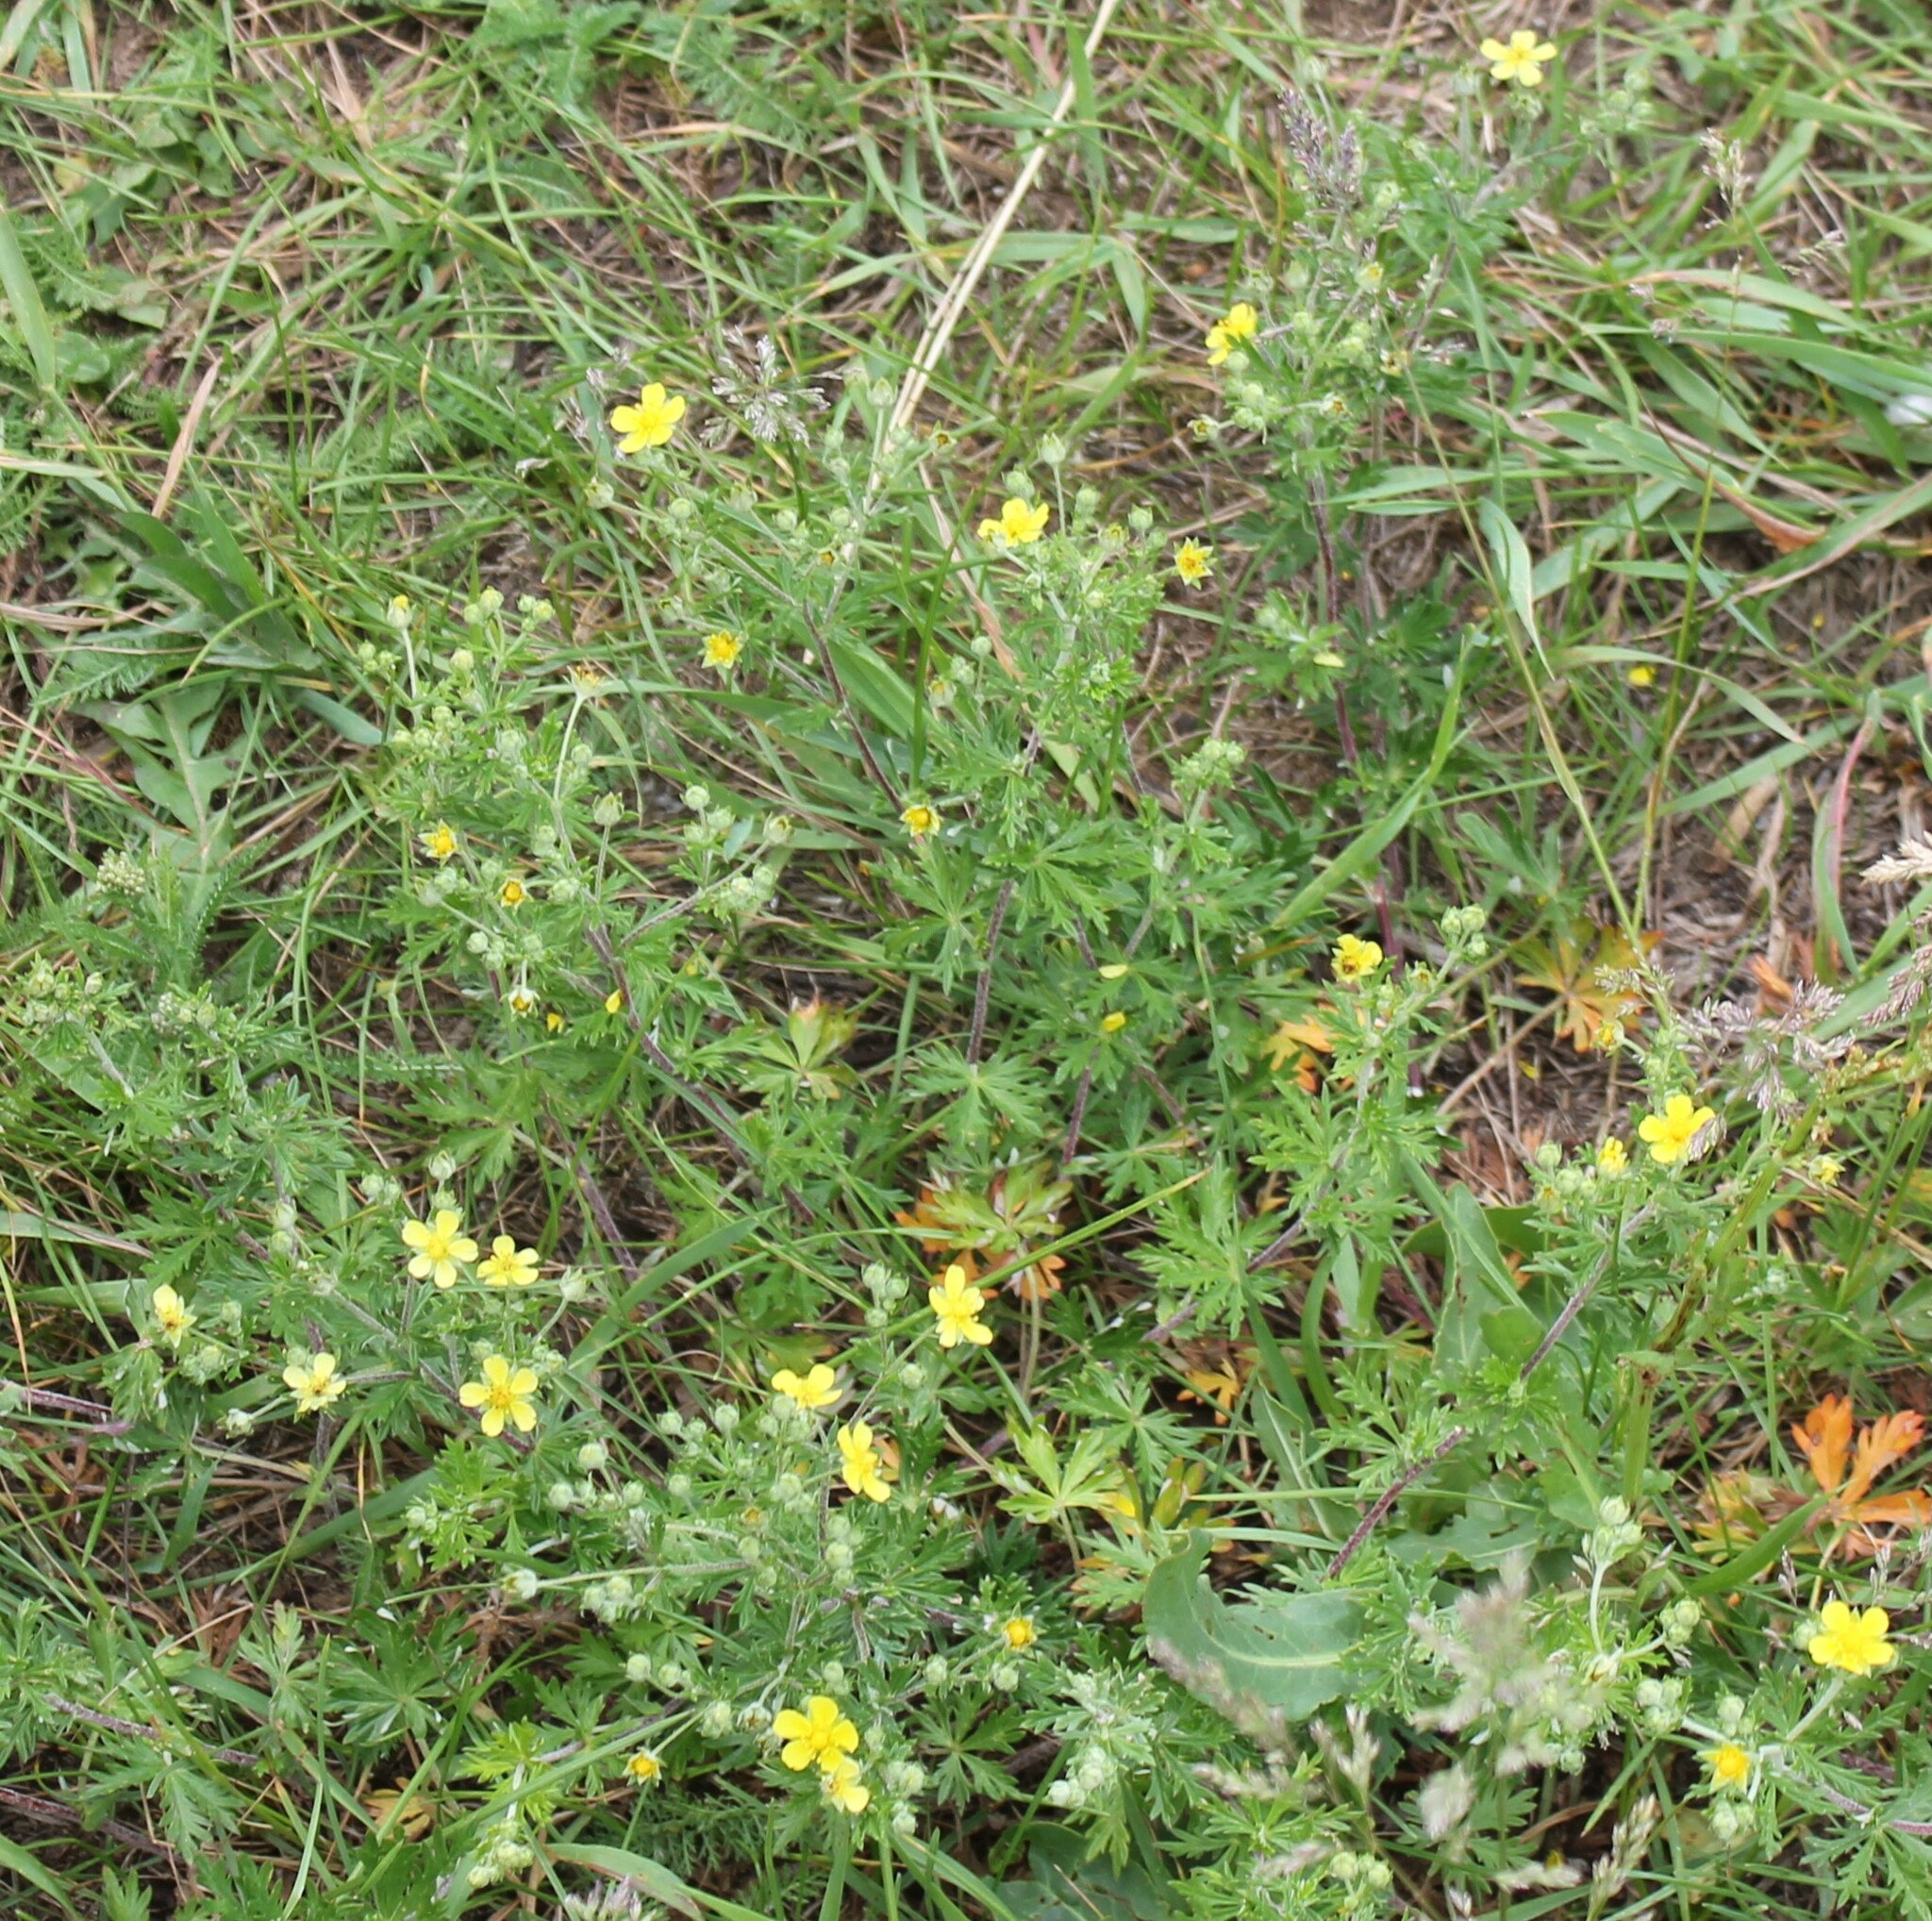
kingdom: Plantae
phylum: Tracheophyta
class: Magnoliopsida
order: Rosales
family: Rosaceae
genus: Potentilla
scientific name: Potentilla argentea
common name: Hoary cinquefoil
